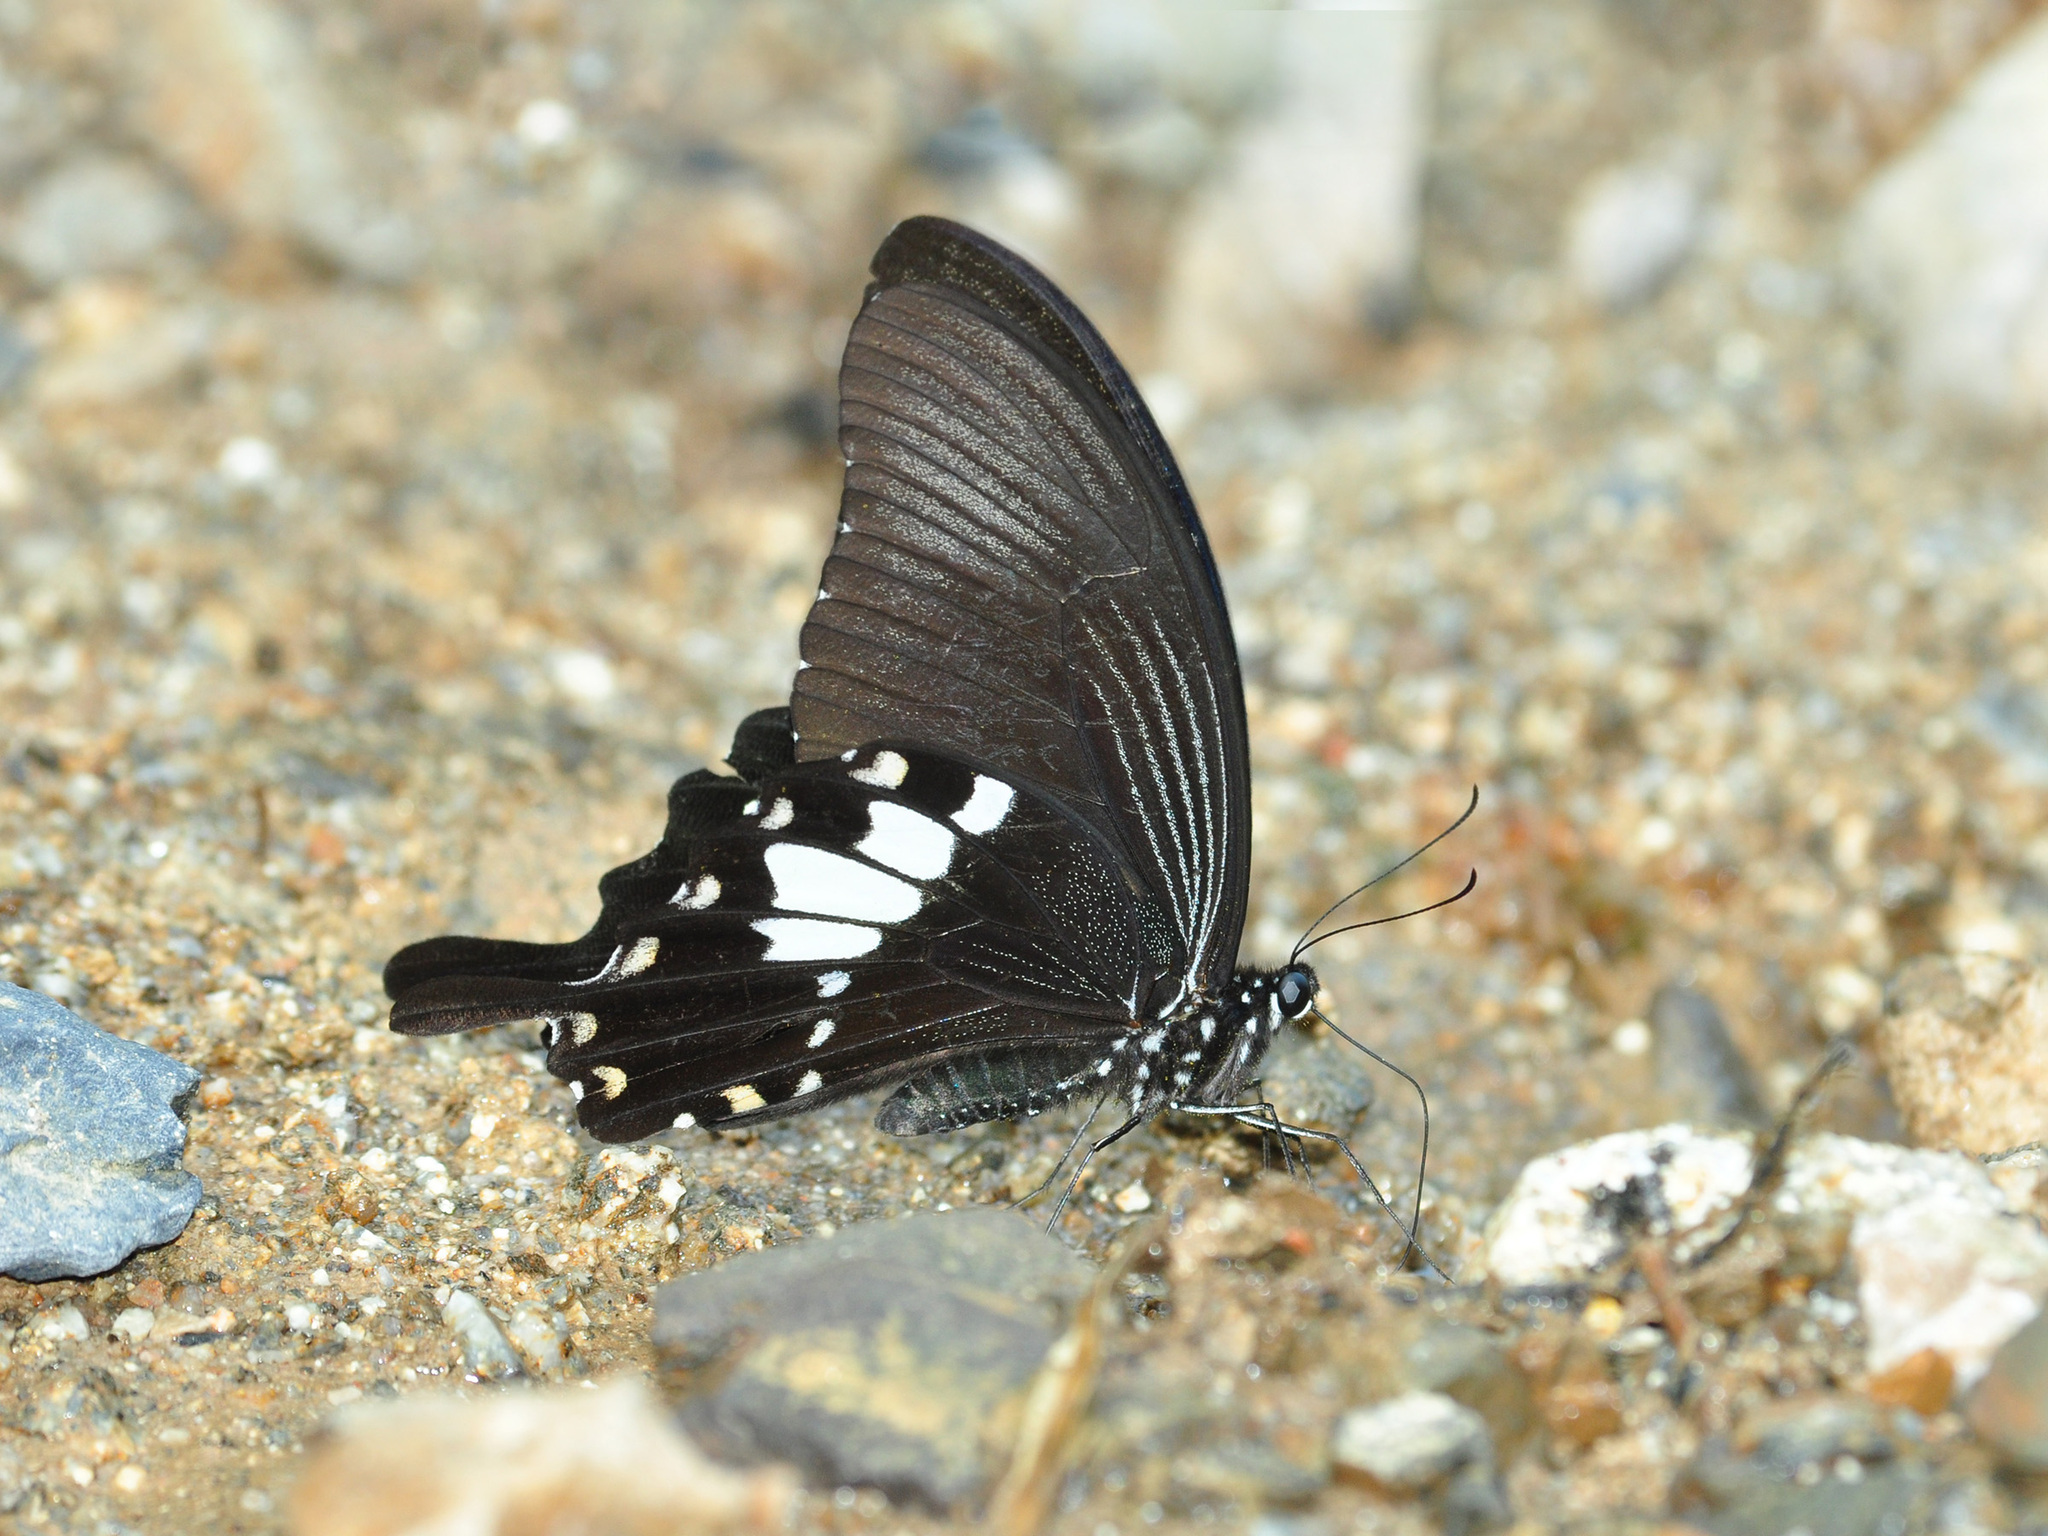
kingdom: Animalia
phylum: Arthropoda
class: Insecta
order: Lepidoptera
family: Papilionidae
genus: Papilio
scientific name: Papilio nephelus
